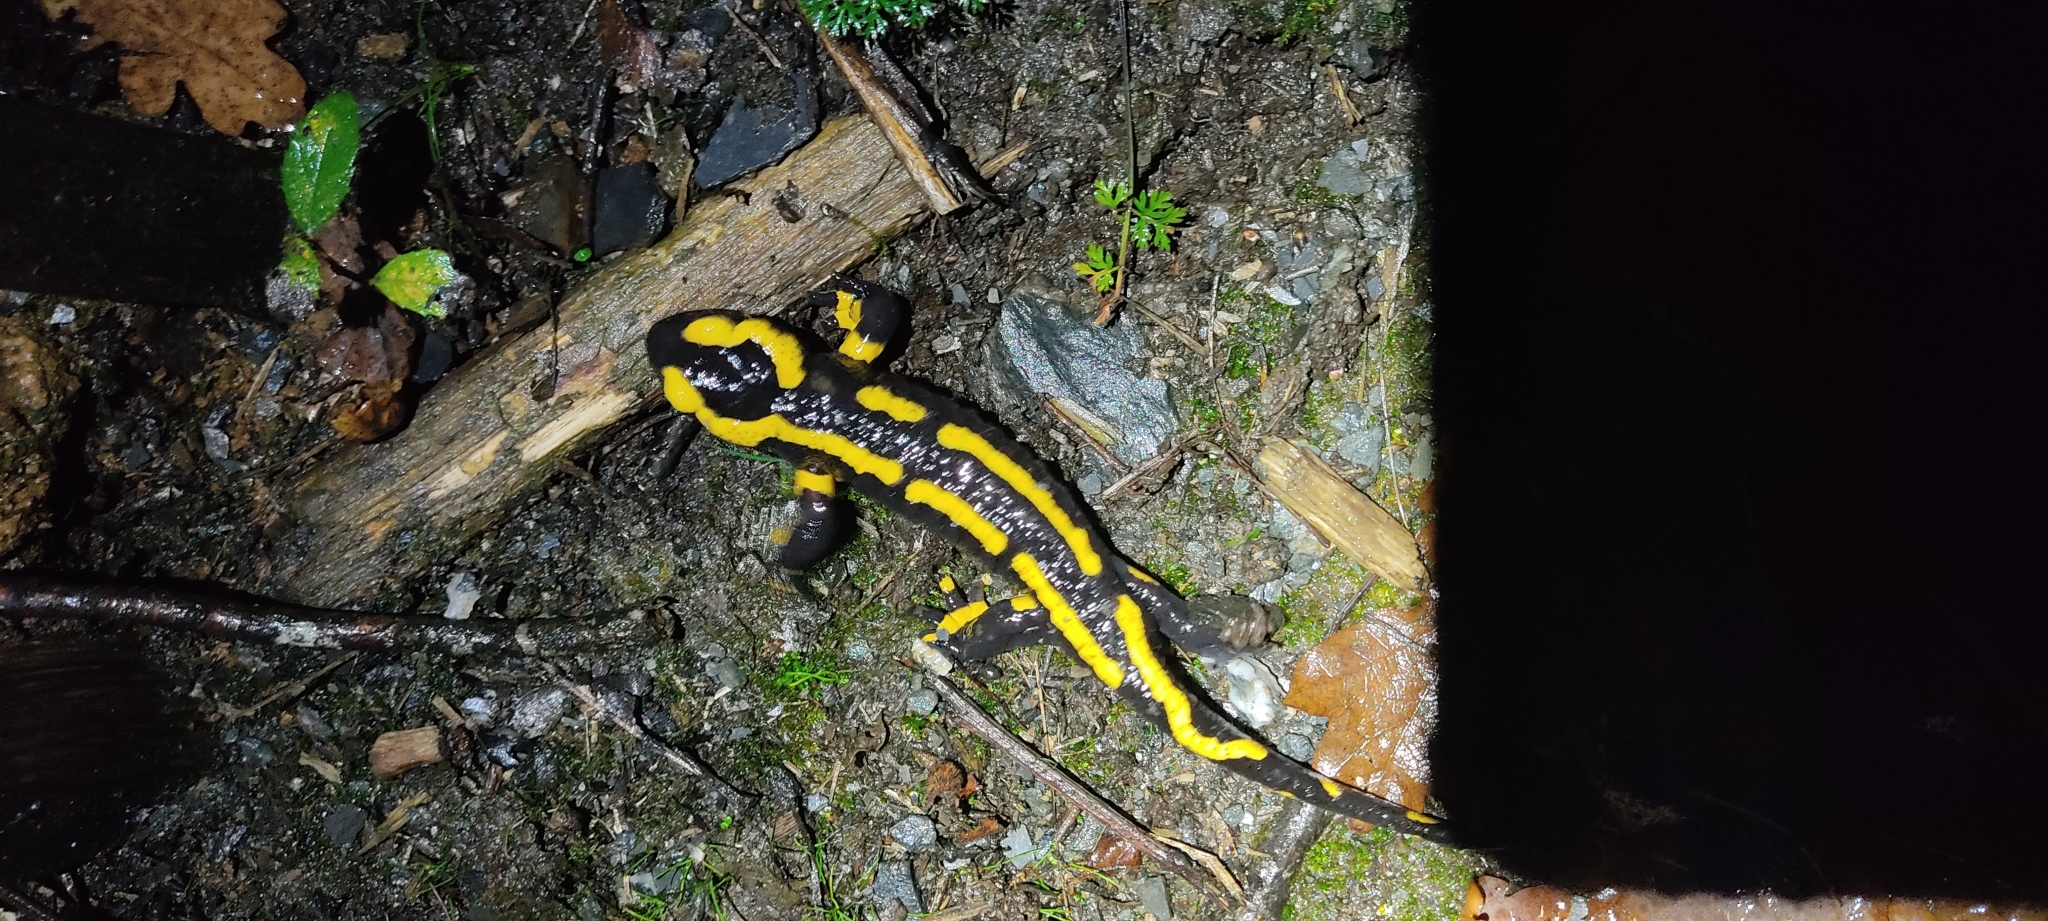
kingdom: Animalia
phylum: Chordata
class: Amphibia
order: Caudata
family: Salamandridae
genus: Salamandra
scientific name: Salamandra salamandra
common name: Fire salamander
